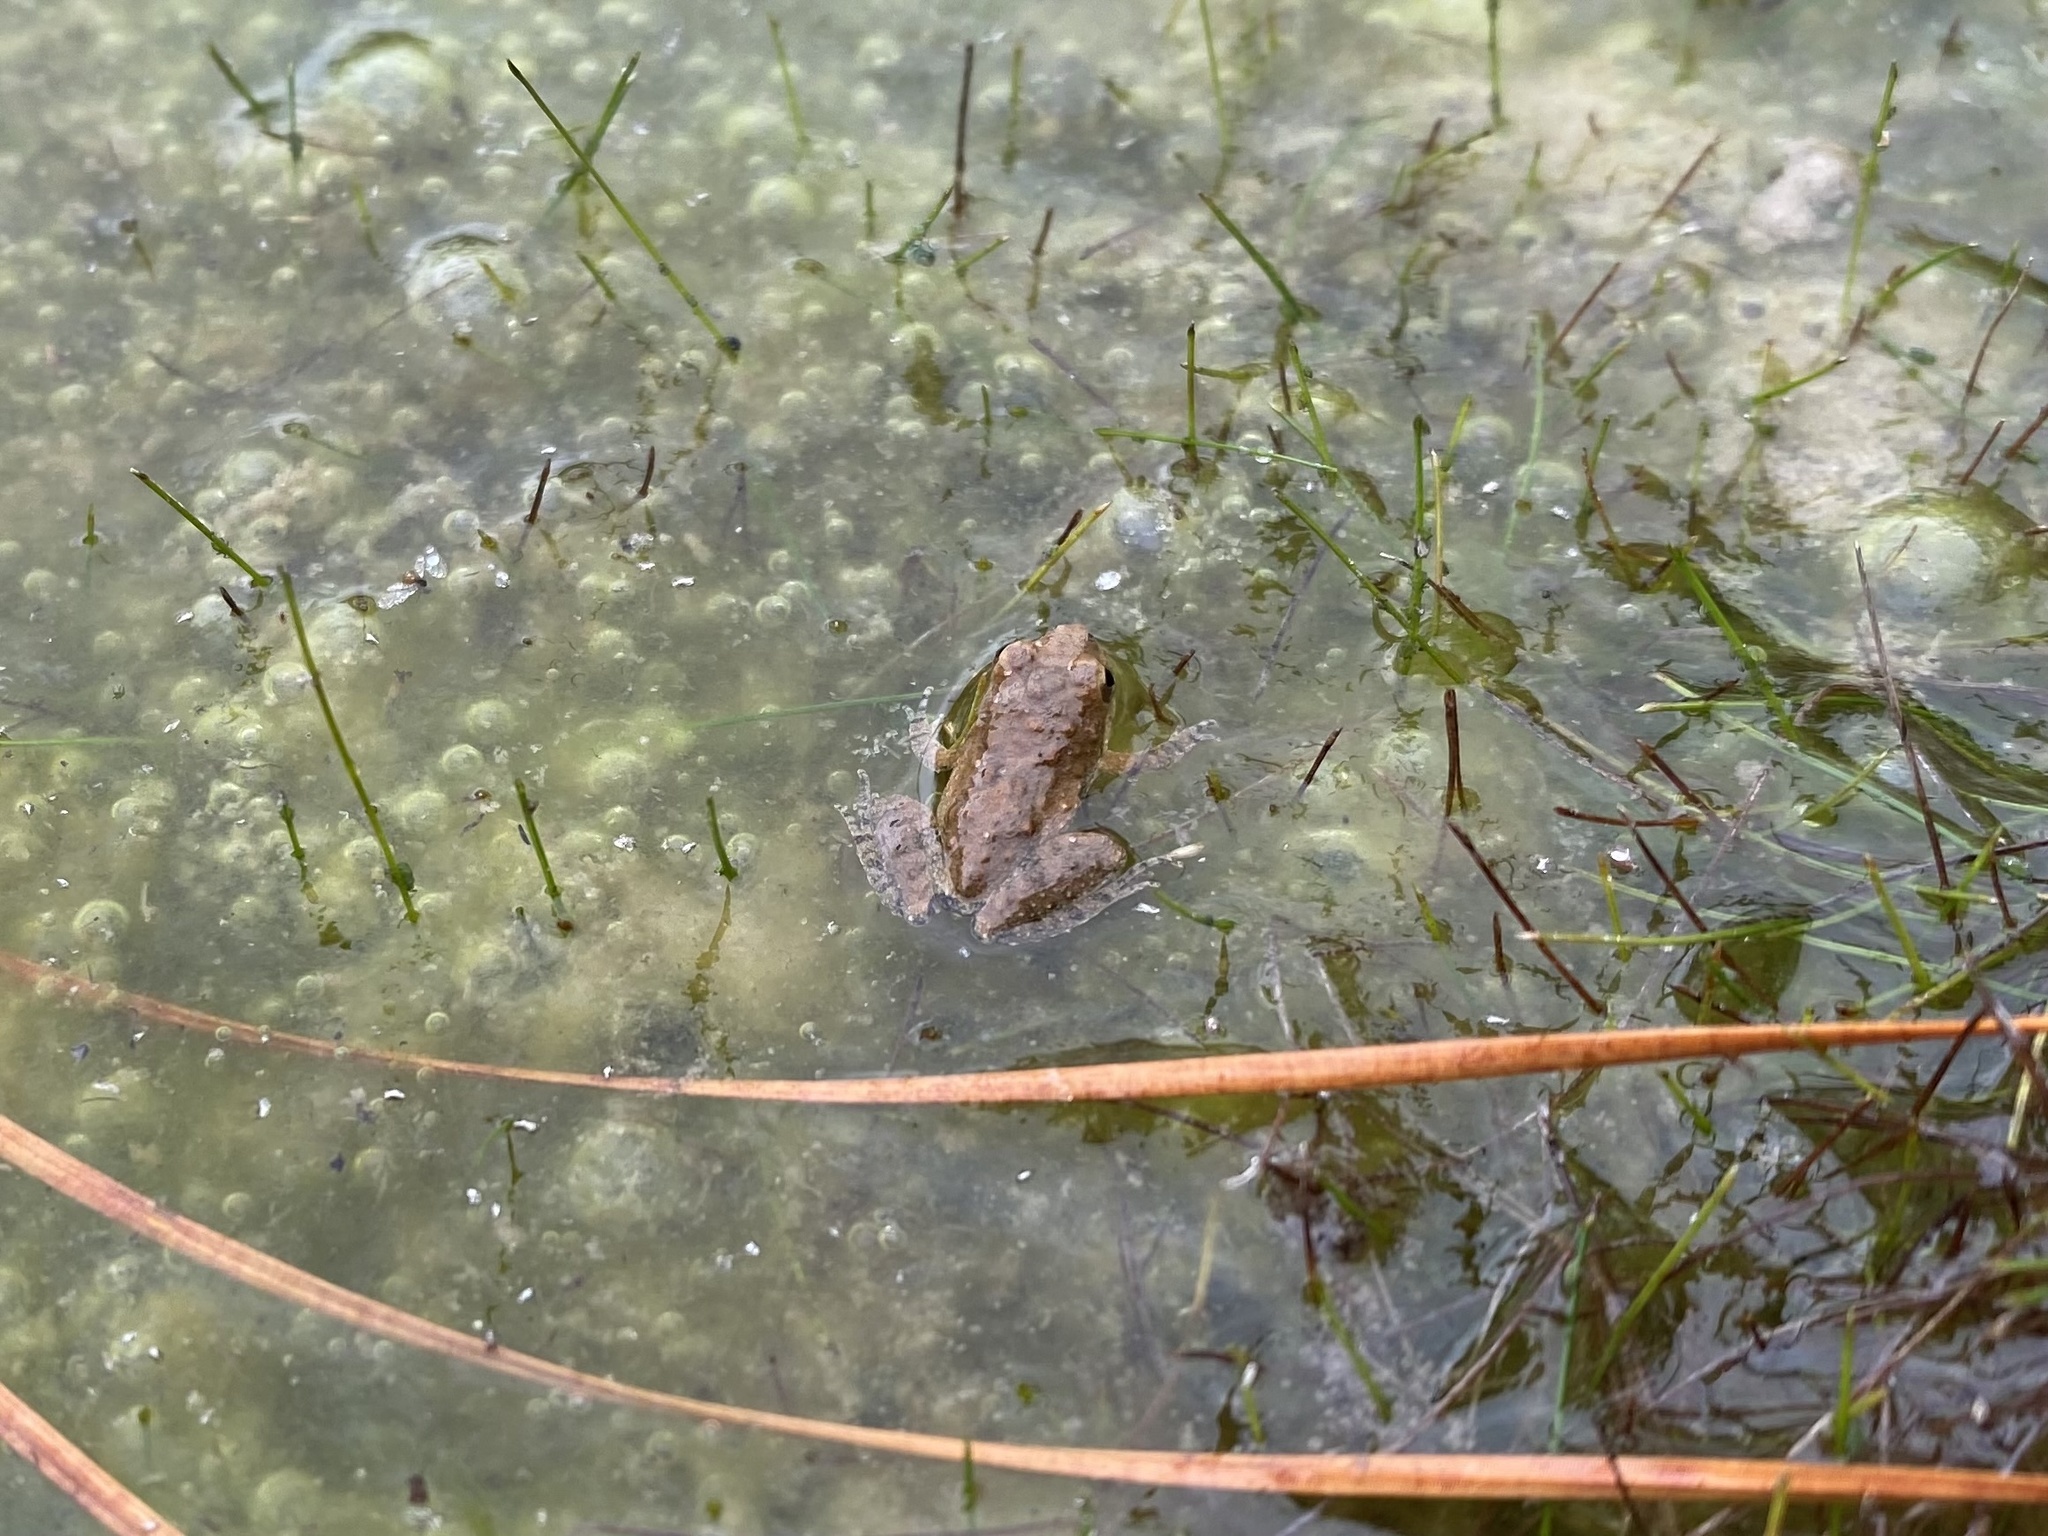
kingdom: Animalia
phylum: Chordata
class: Amphibia
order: Anura
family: Hylidae
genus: Acris
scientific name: Acris blanchardi
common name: Blanchard's cricket frog
